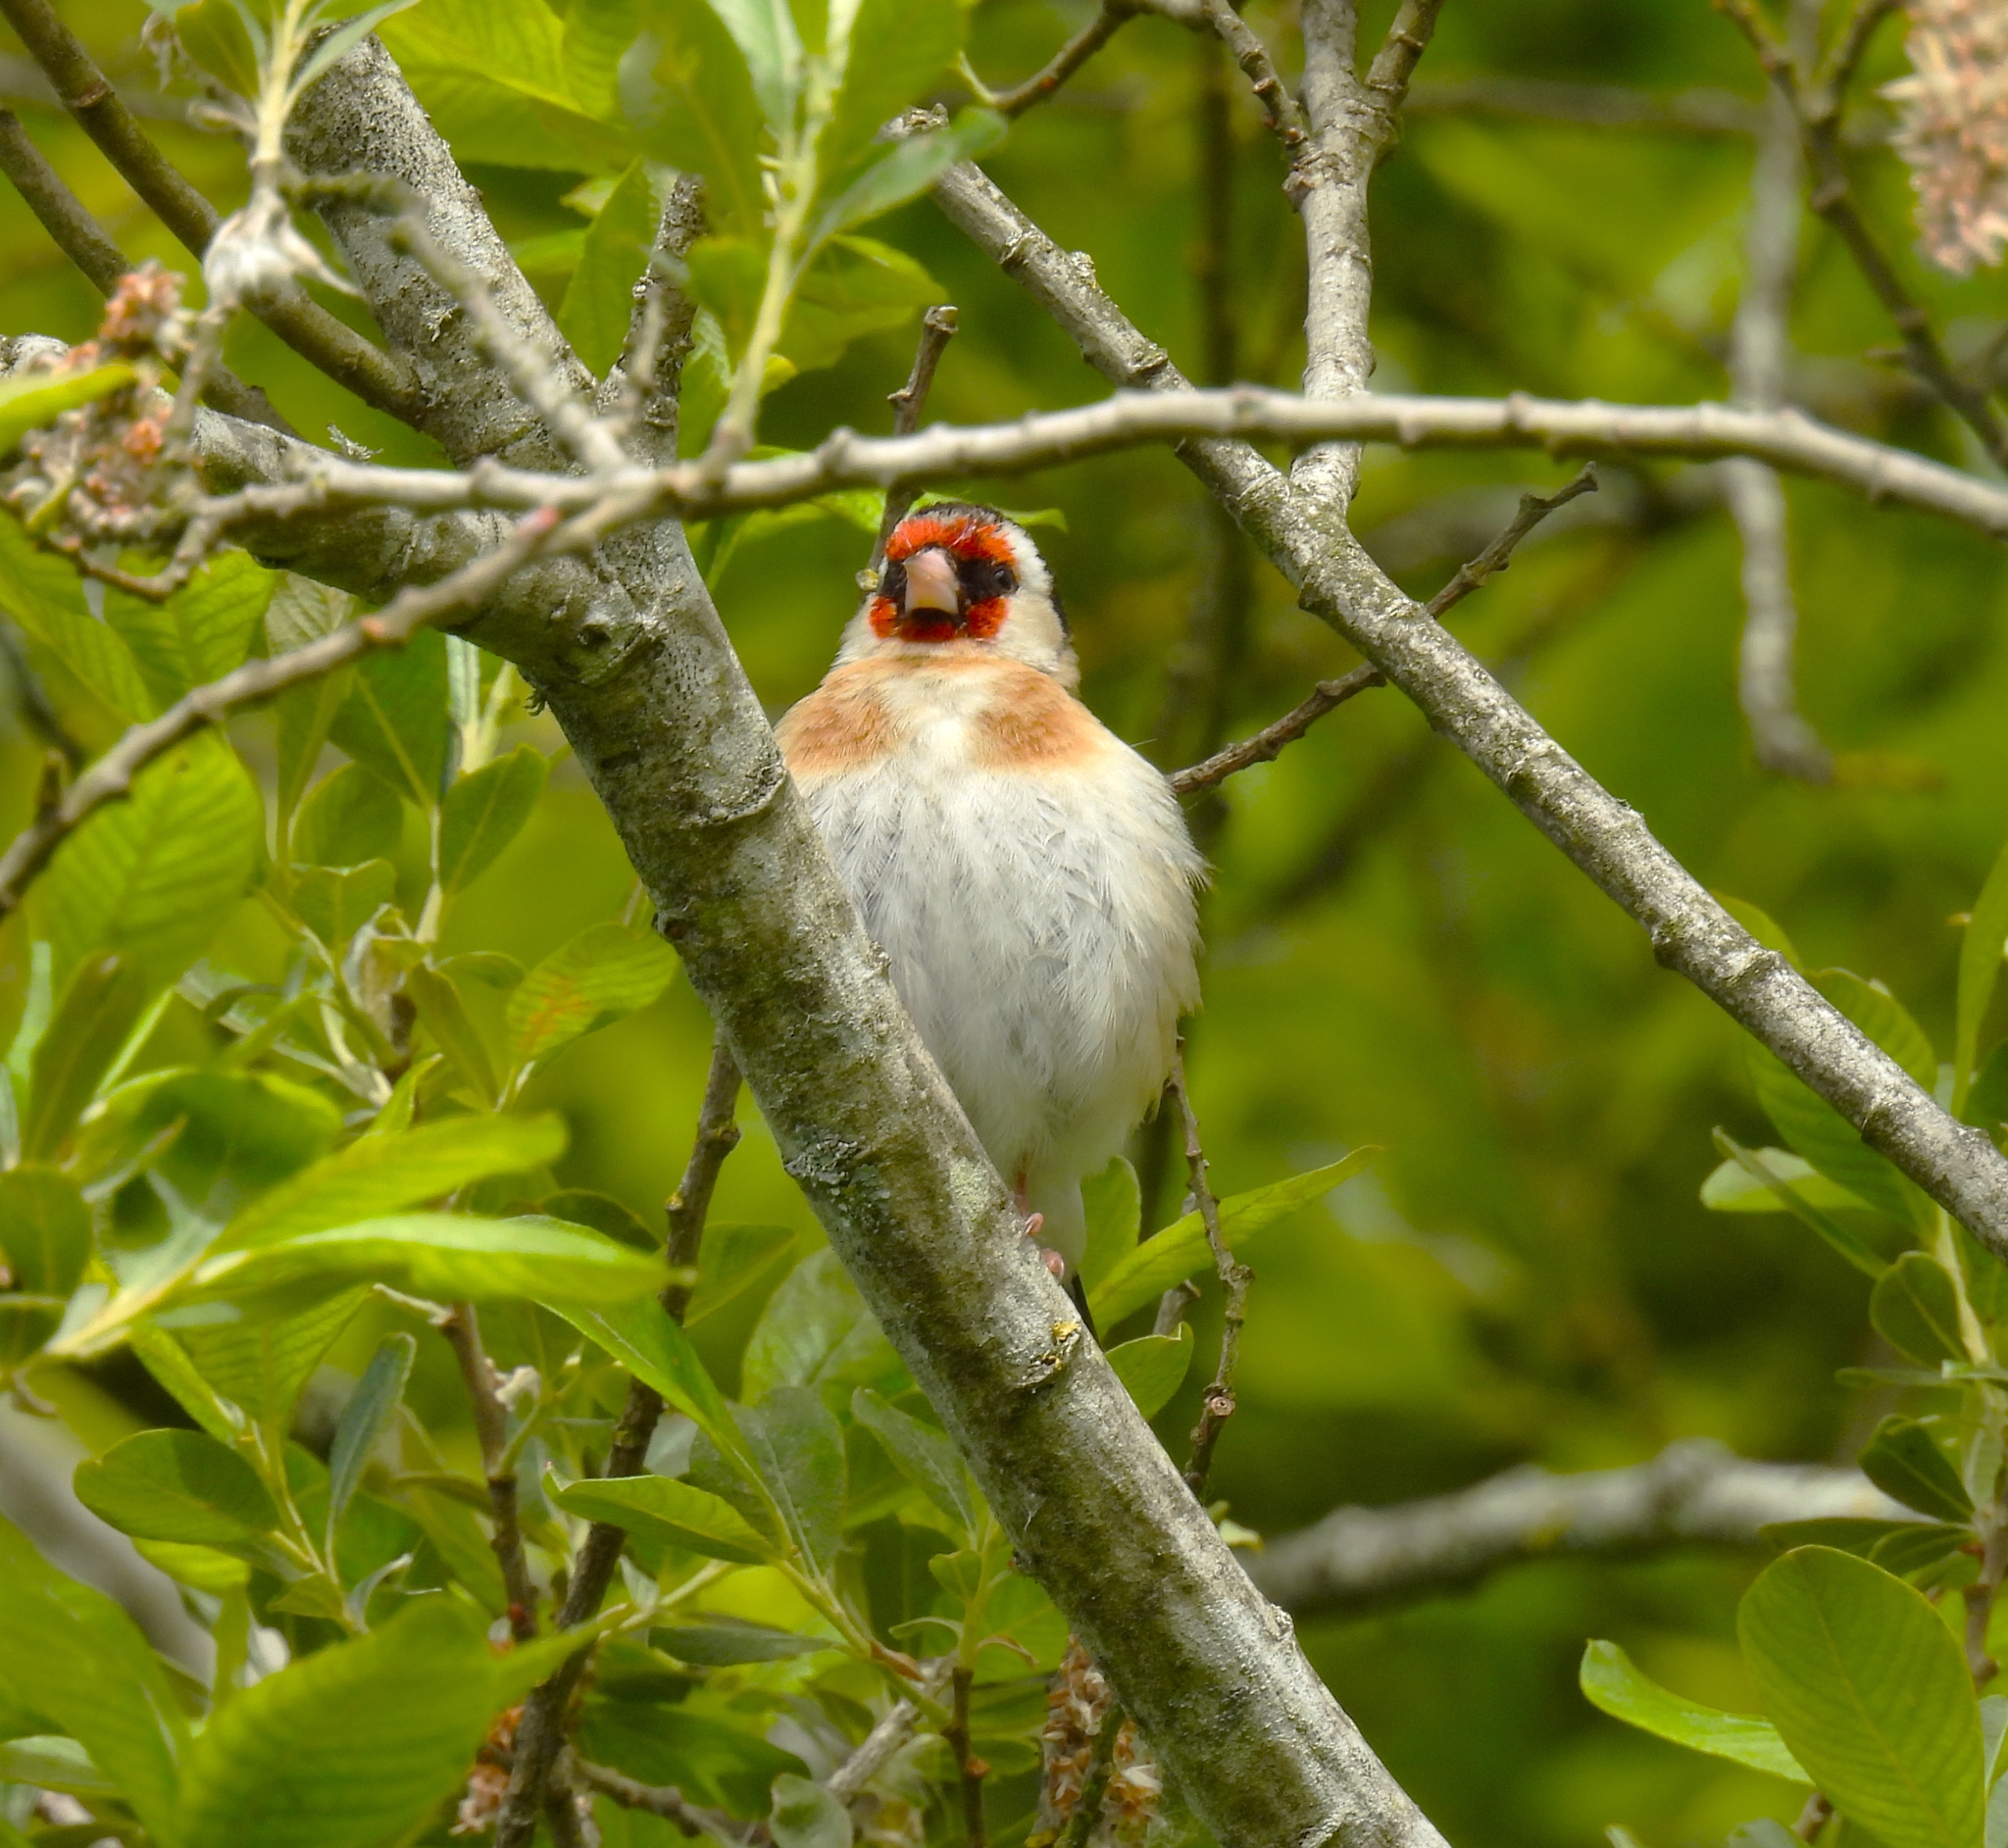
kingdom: Animalia
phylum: Chordata
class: Aves
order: Passeriformes
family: Fringillidae
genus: Carduelis
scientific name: Carduelis carduelis
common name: European goldfinch
